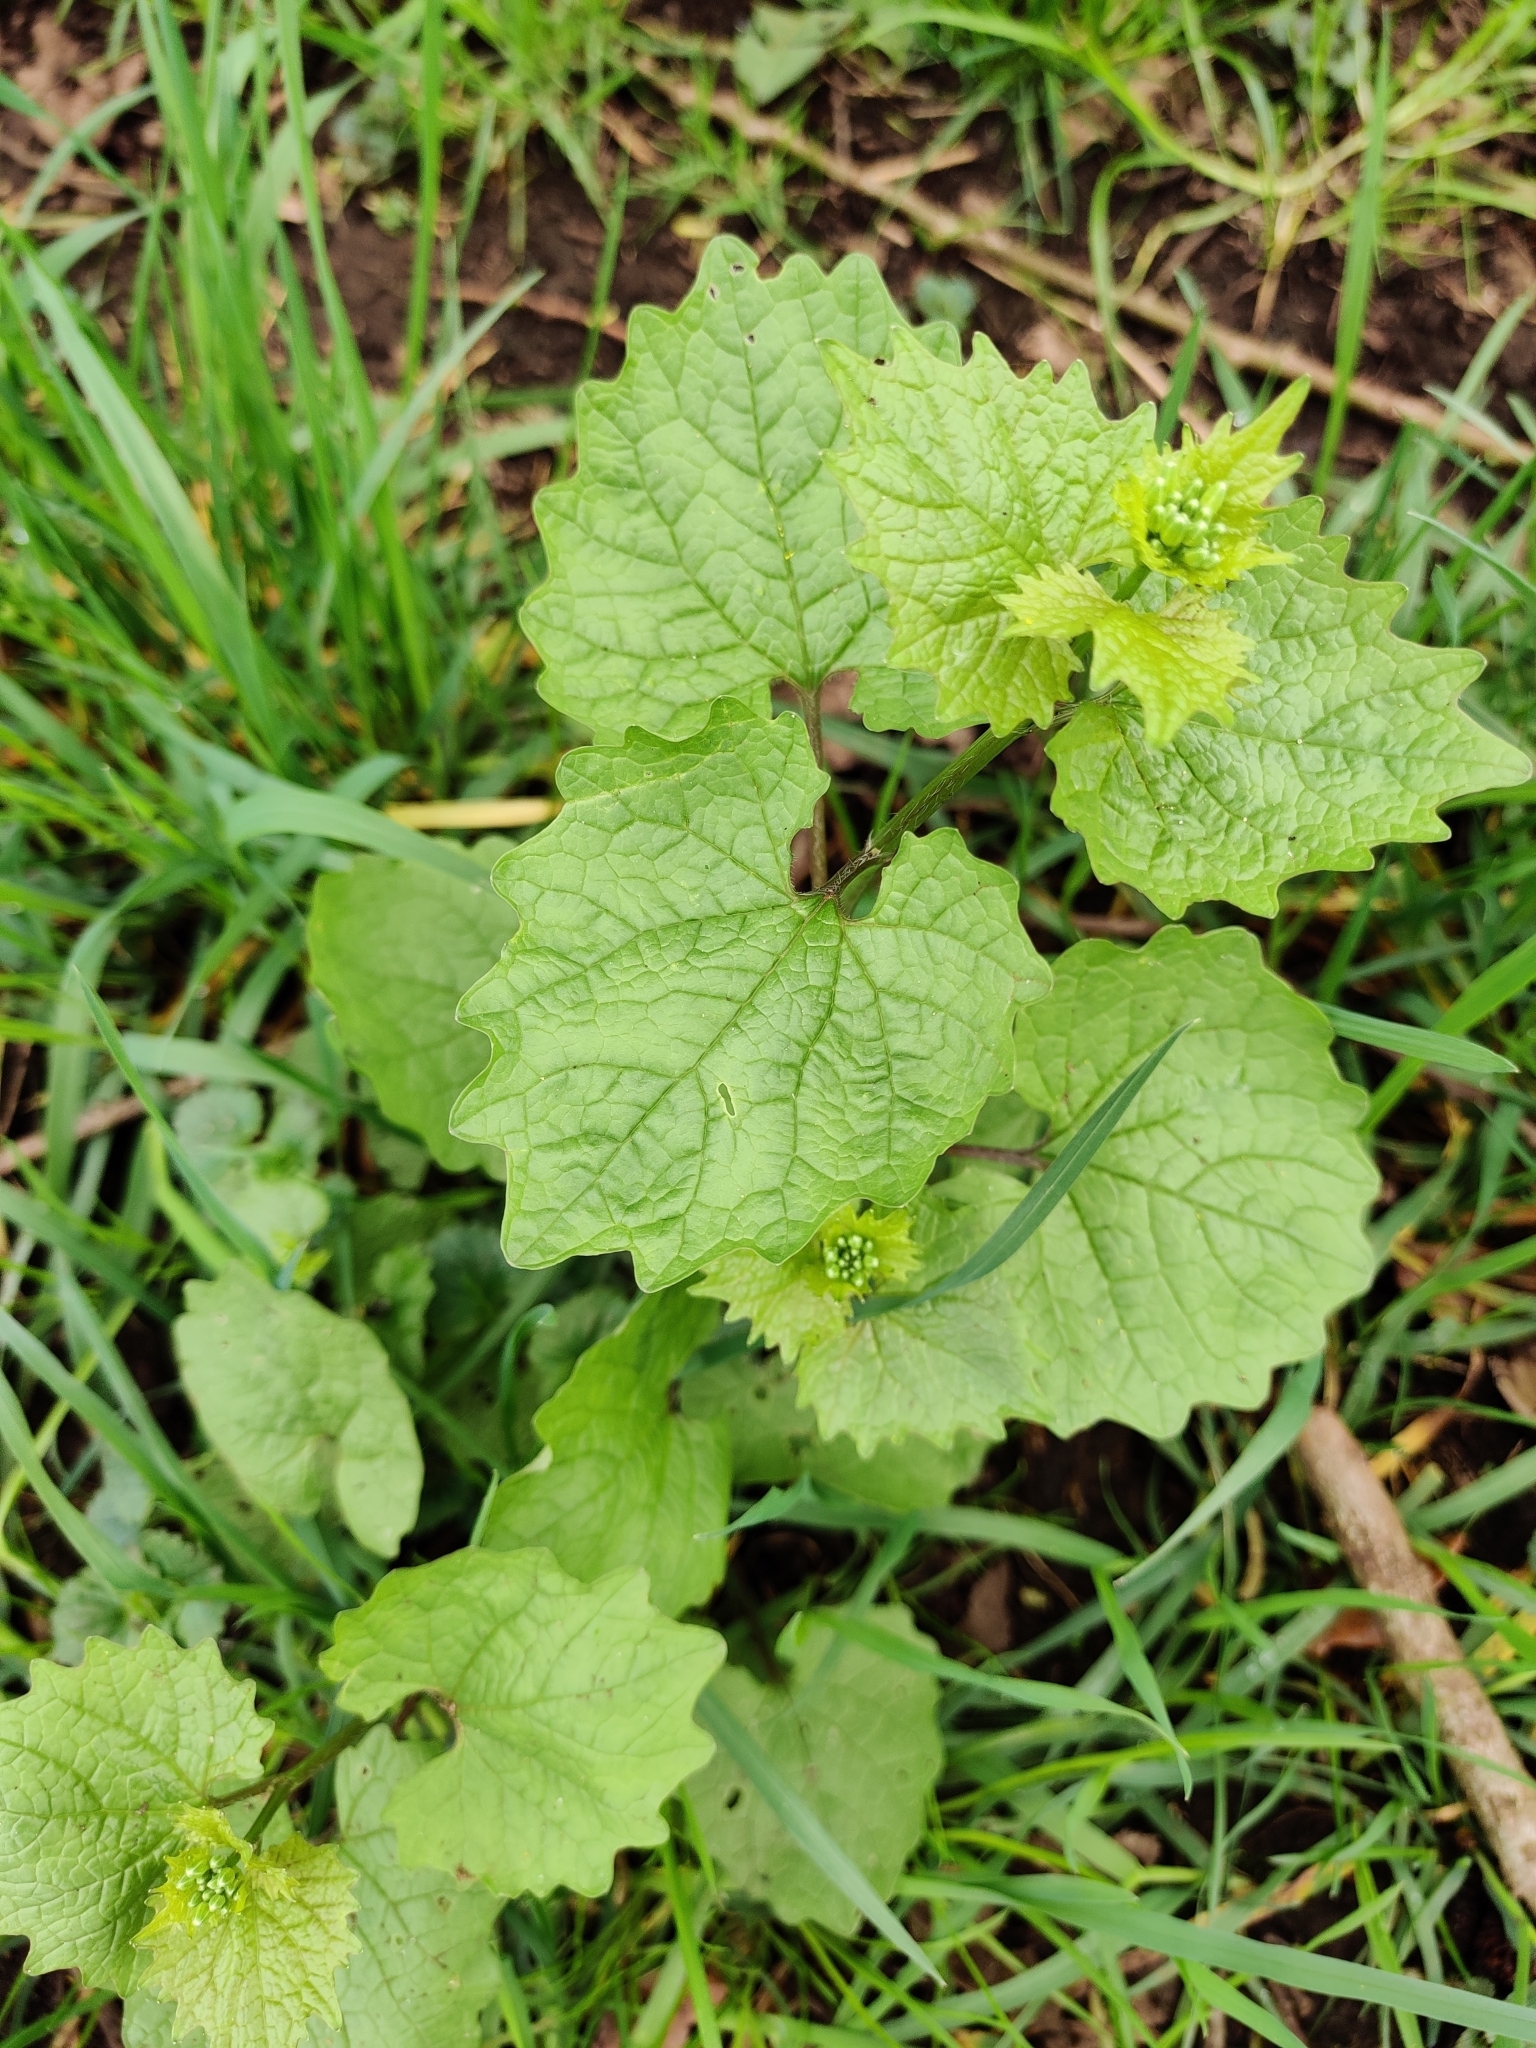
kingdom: Plantae
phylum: Tracheophyta
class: Magnoliopsida
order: Brassicales
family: Brassicaceae
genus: Alliaria
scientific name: Alliaria petiolata
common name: Garlic mustard
